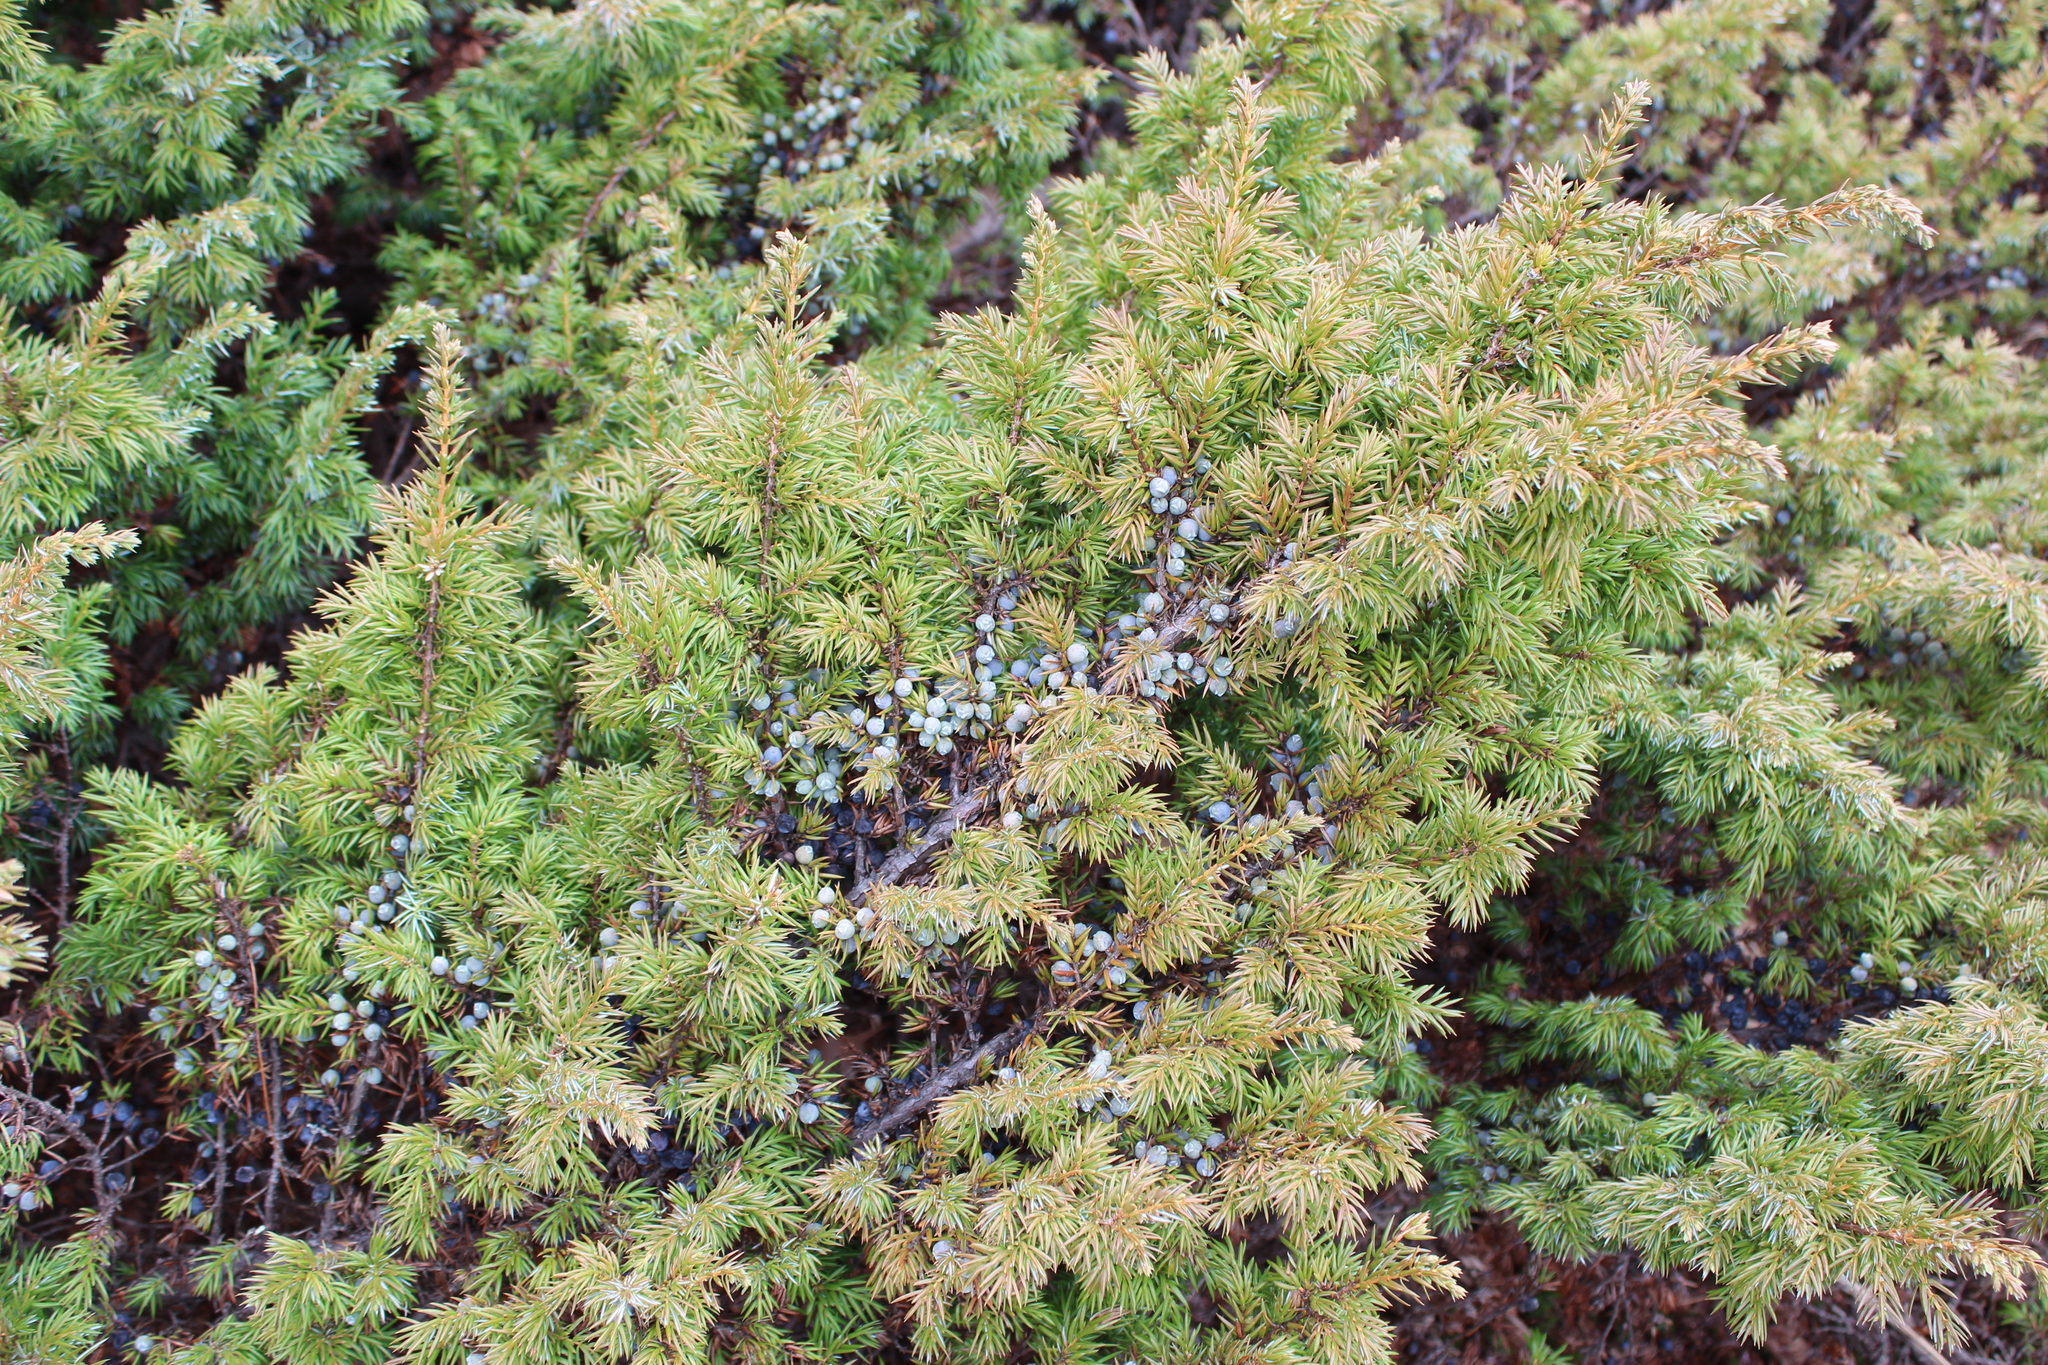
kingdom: Plantae
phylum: Tracheophyta
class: Pinopsida
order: Pinales
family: Cupressaceae
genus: Juniperus
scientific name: Juniperus communis
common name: Common juniper
